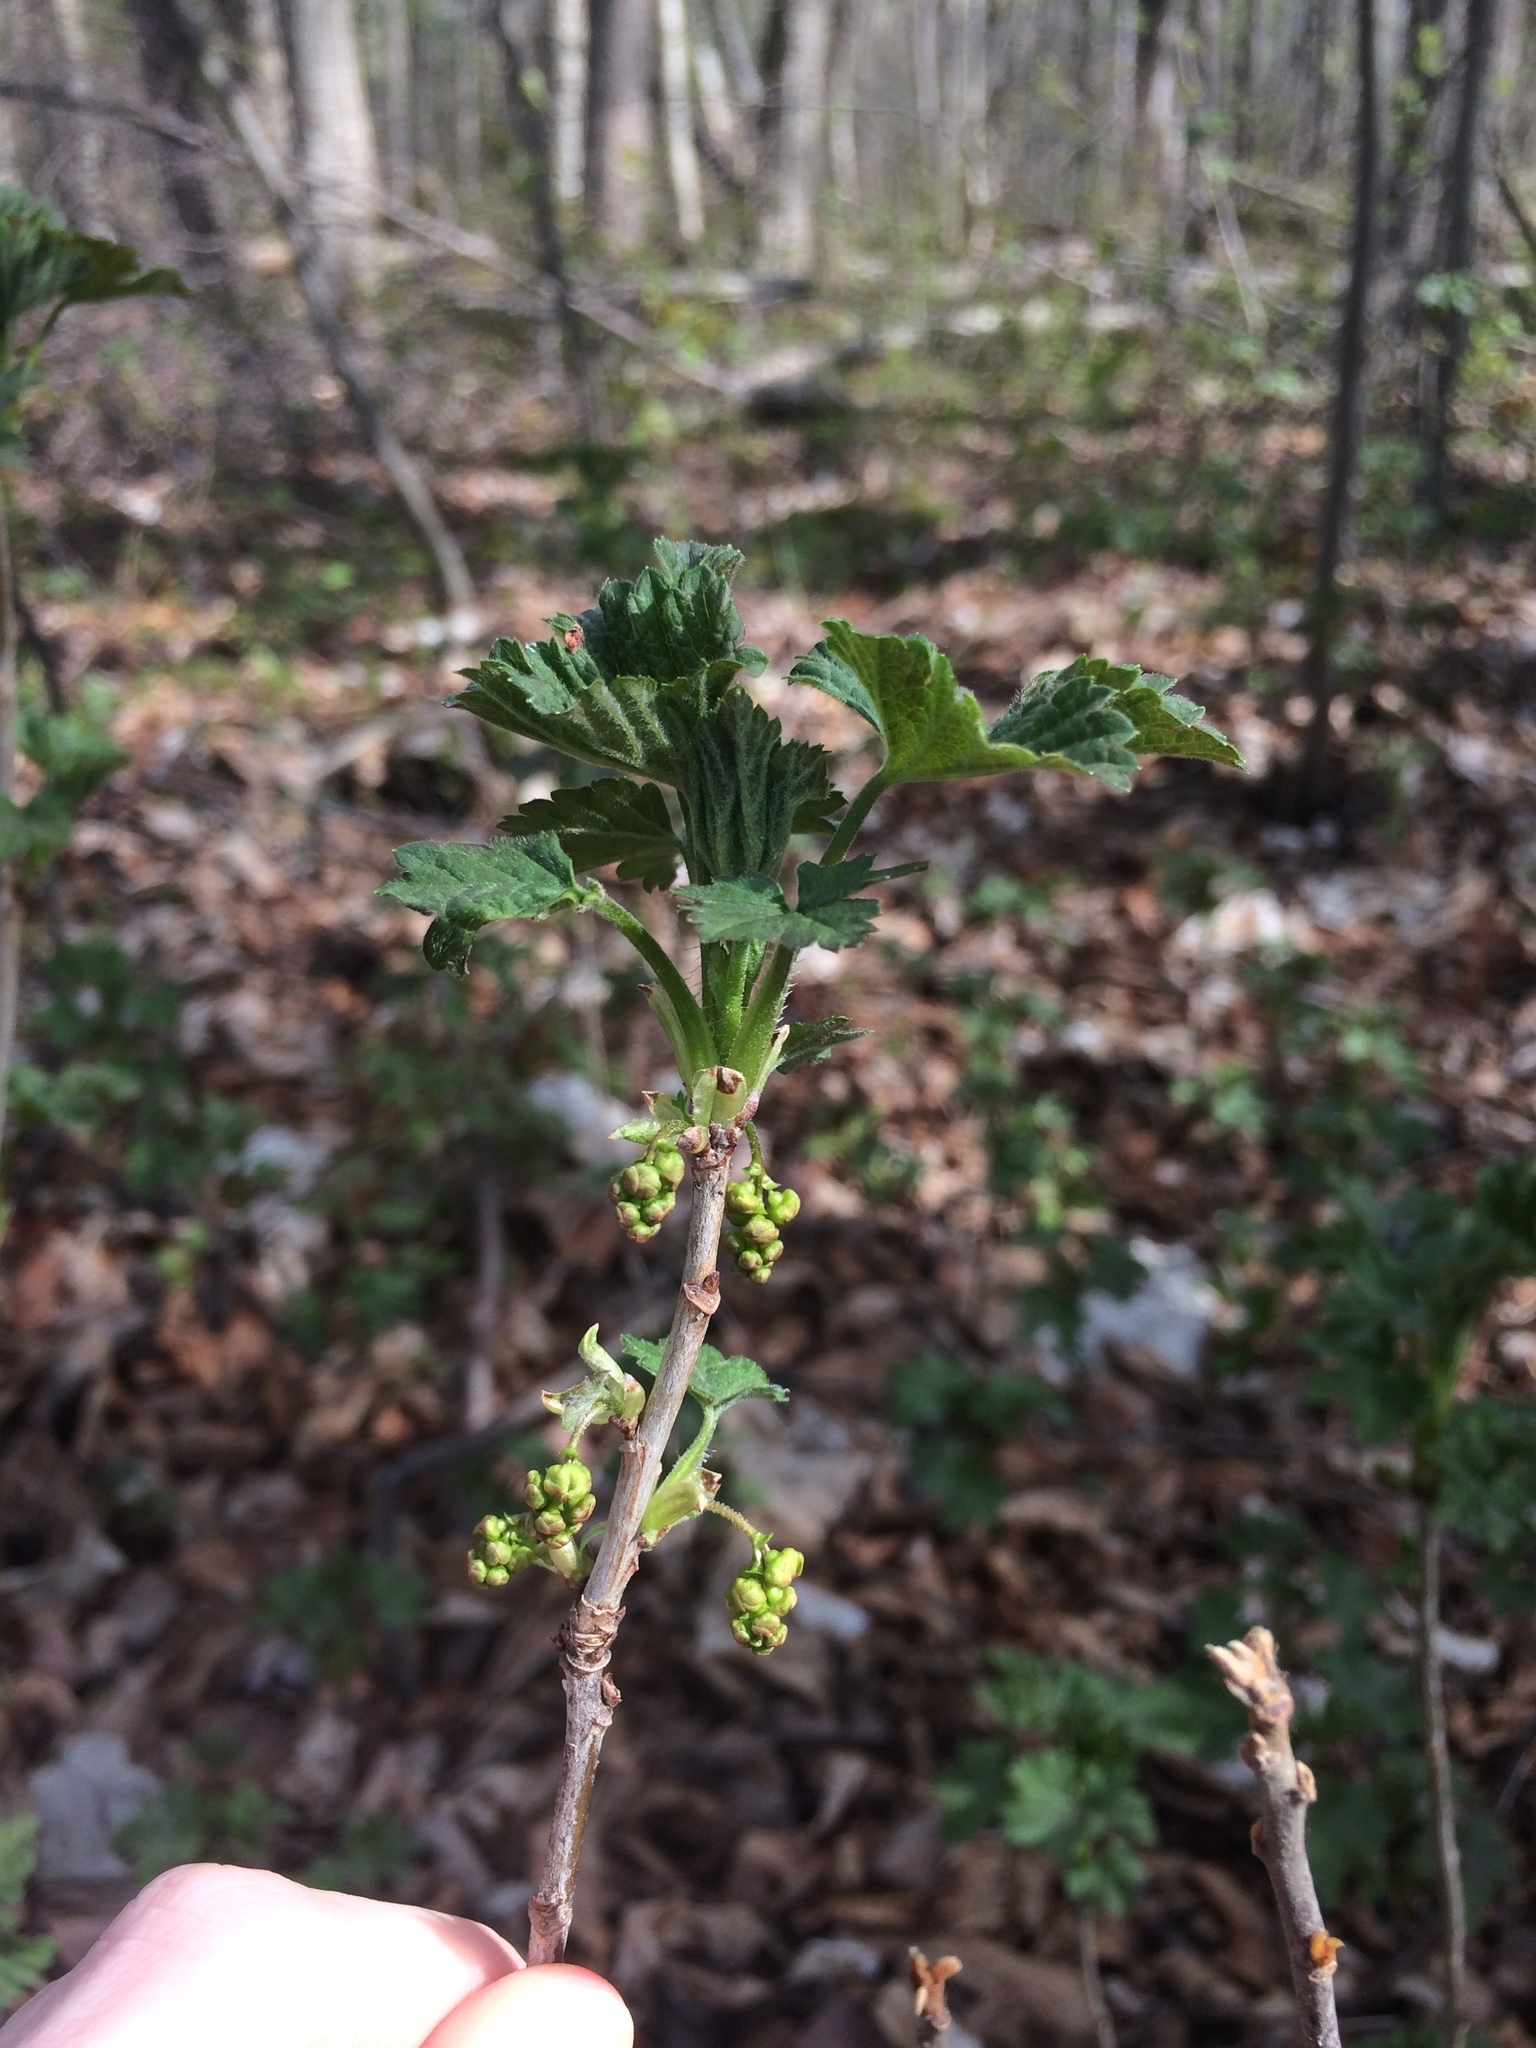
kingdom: Plantae
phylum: Tracheophyta
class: Magnoliopsida
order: Saxifragales
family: Grossulariaceae
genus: Ribes
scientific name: Ribes rubrum
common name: Red currant
